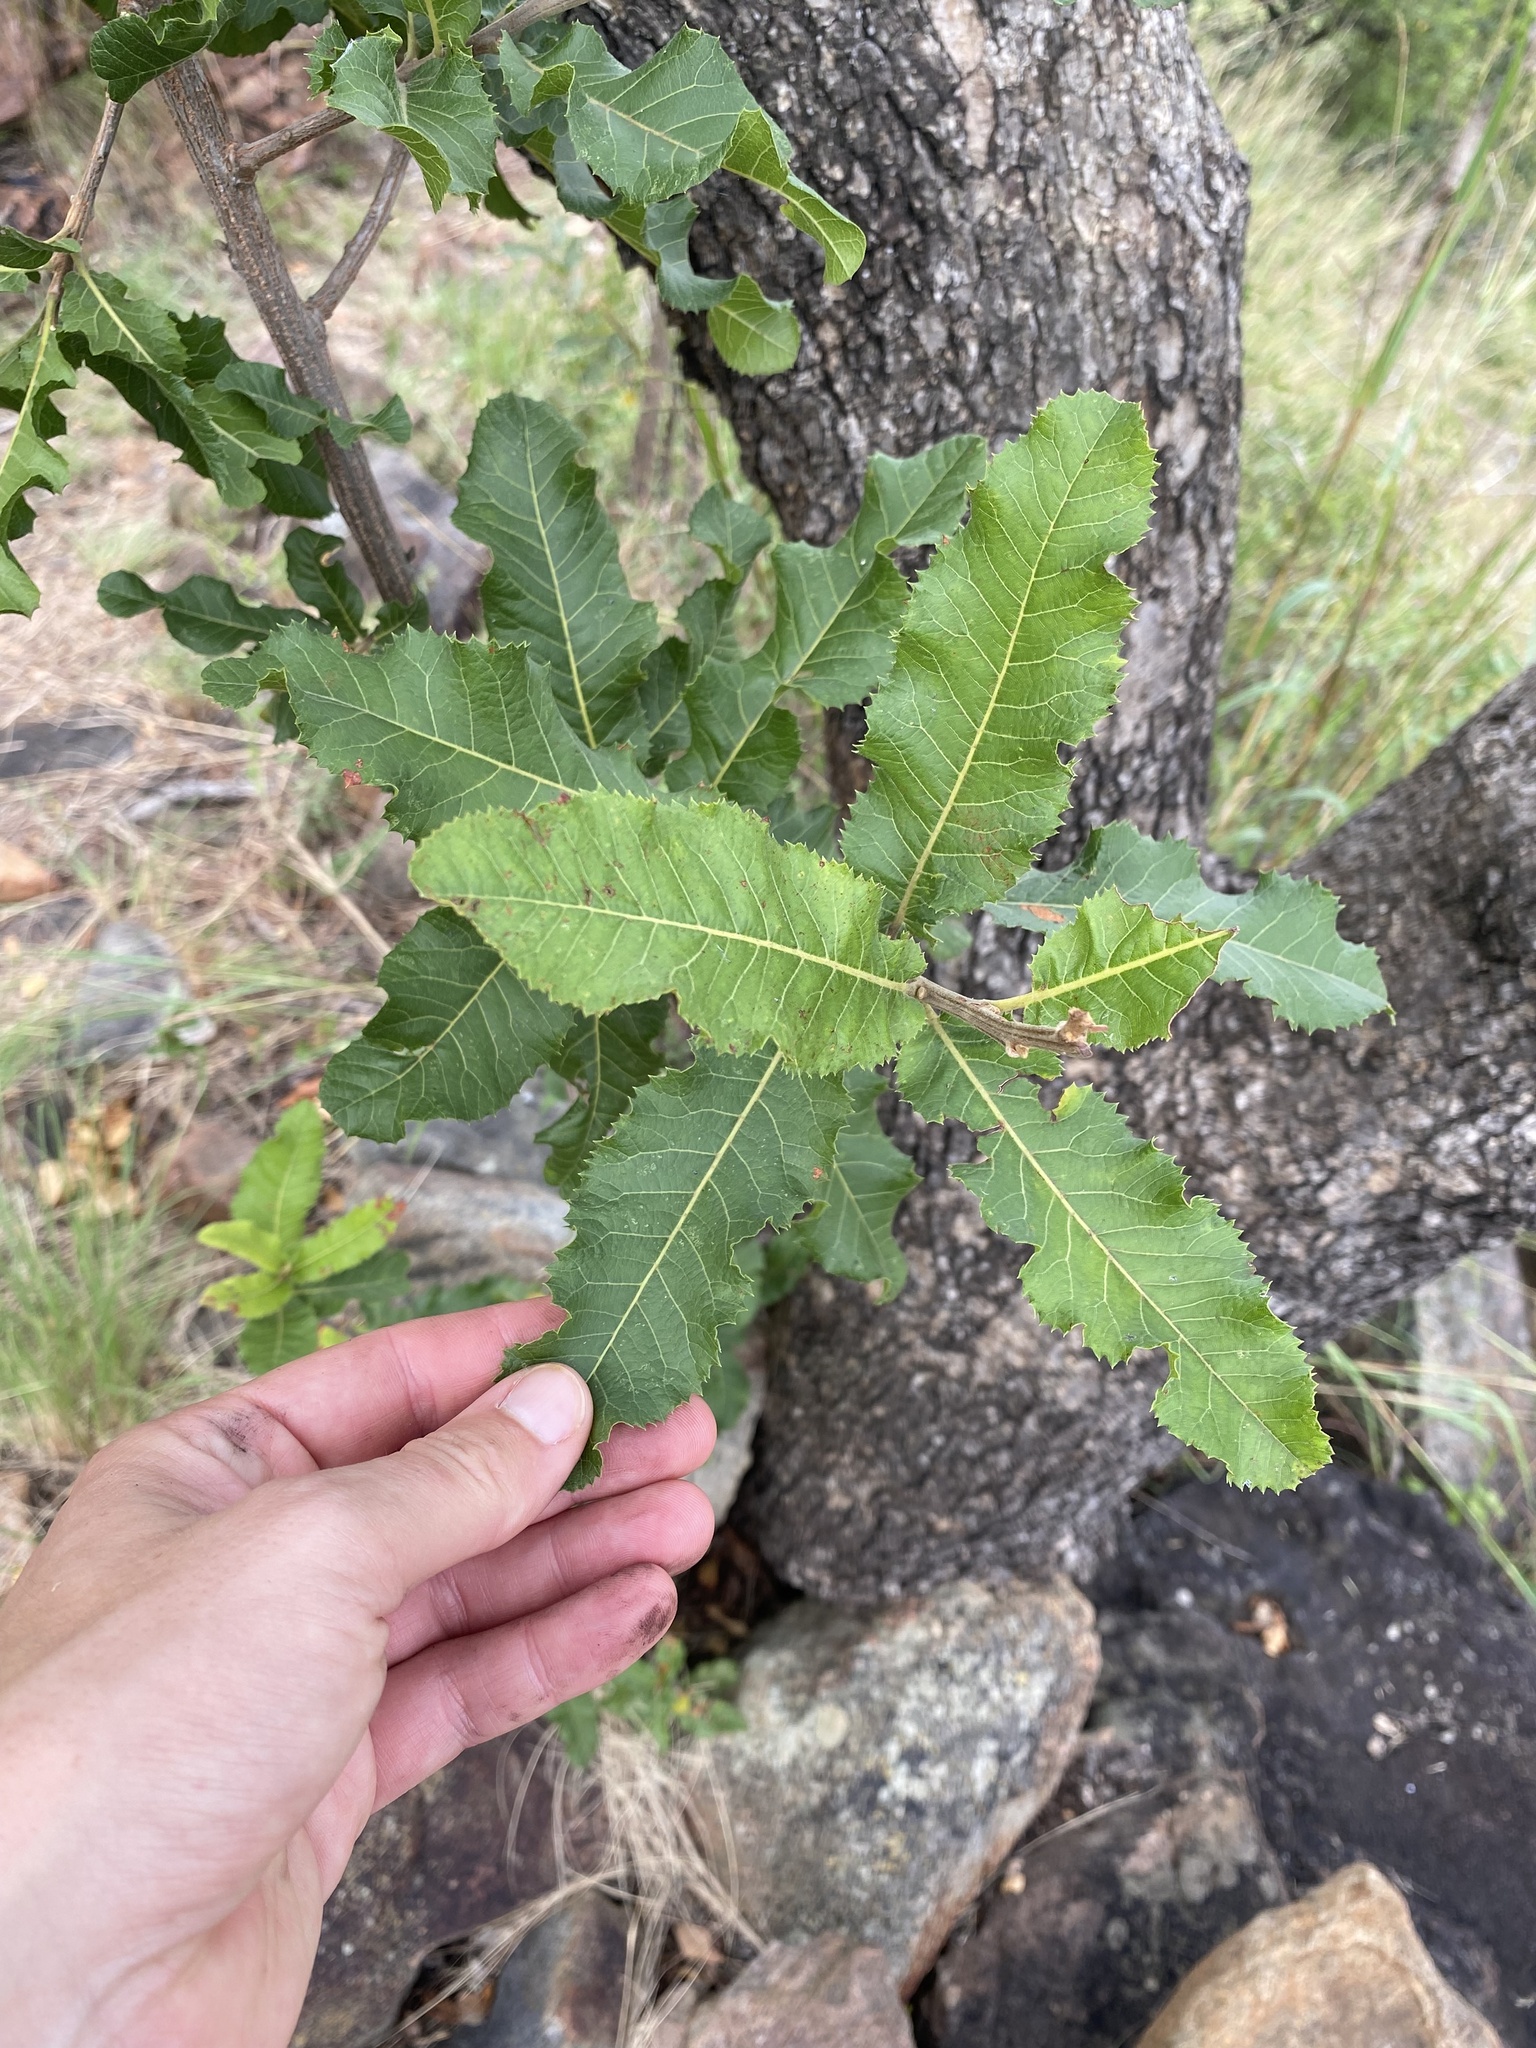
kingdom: Plantae
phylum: Tracheophyta
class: Magnoliopsida
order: Sapindales
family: Sapindaceae
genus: Pappea
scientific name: Pappea capensis
